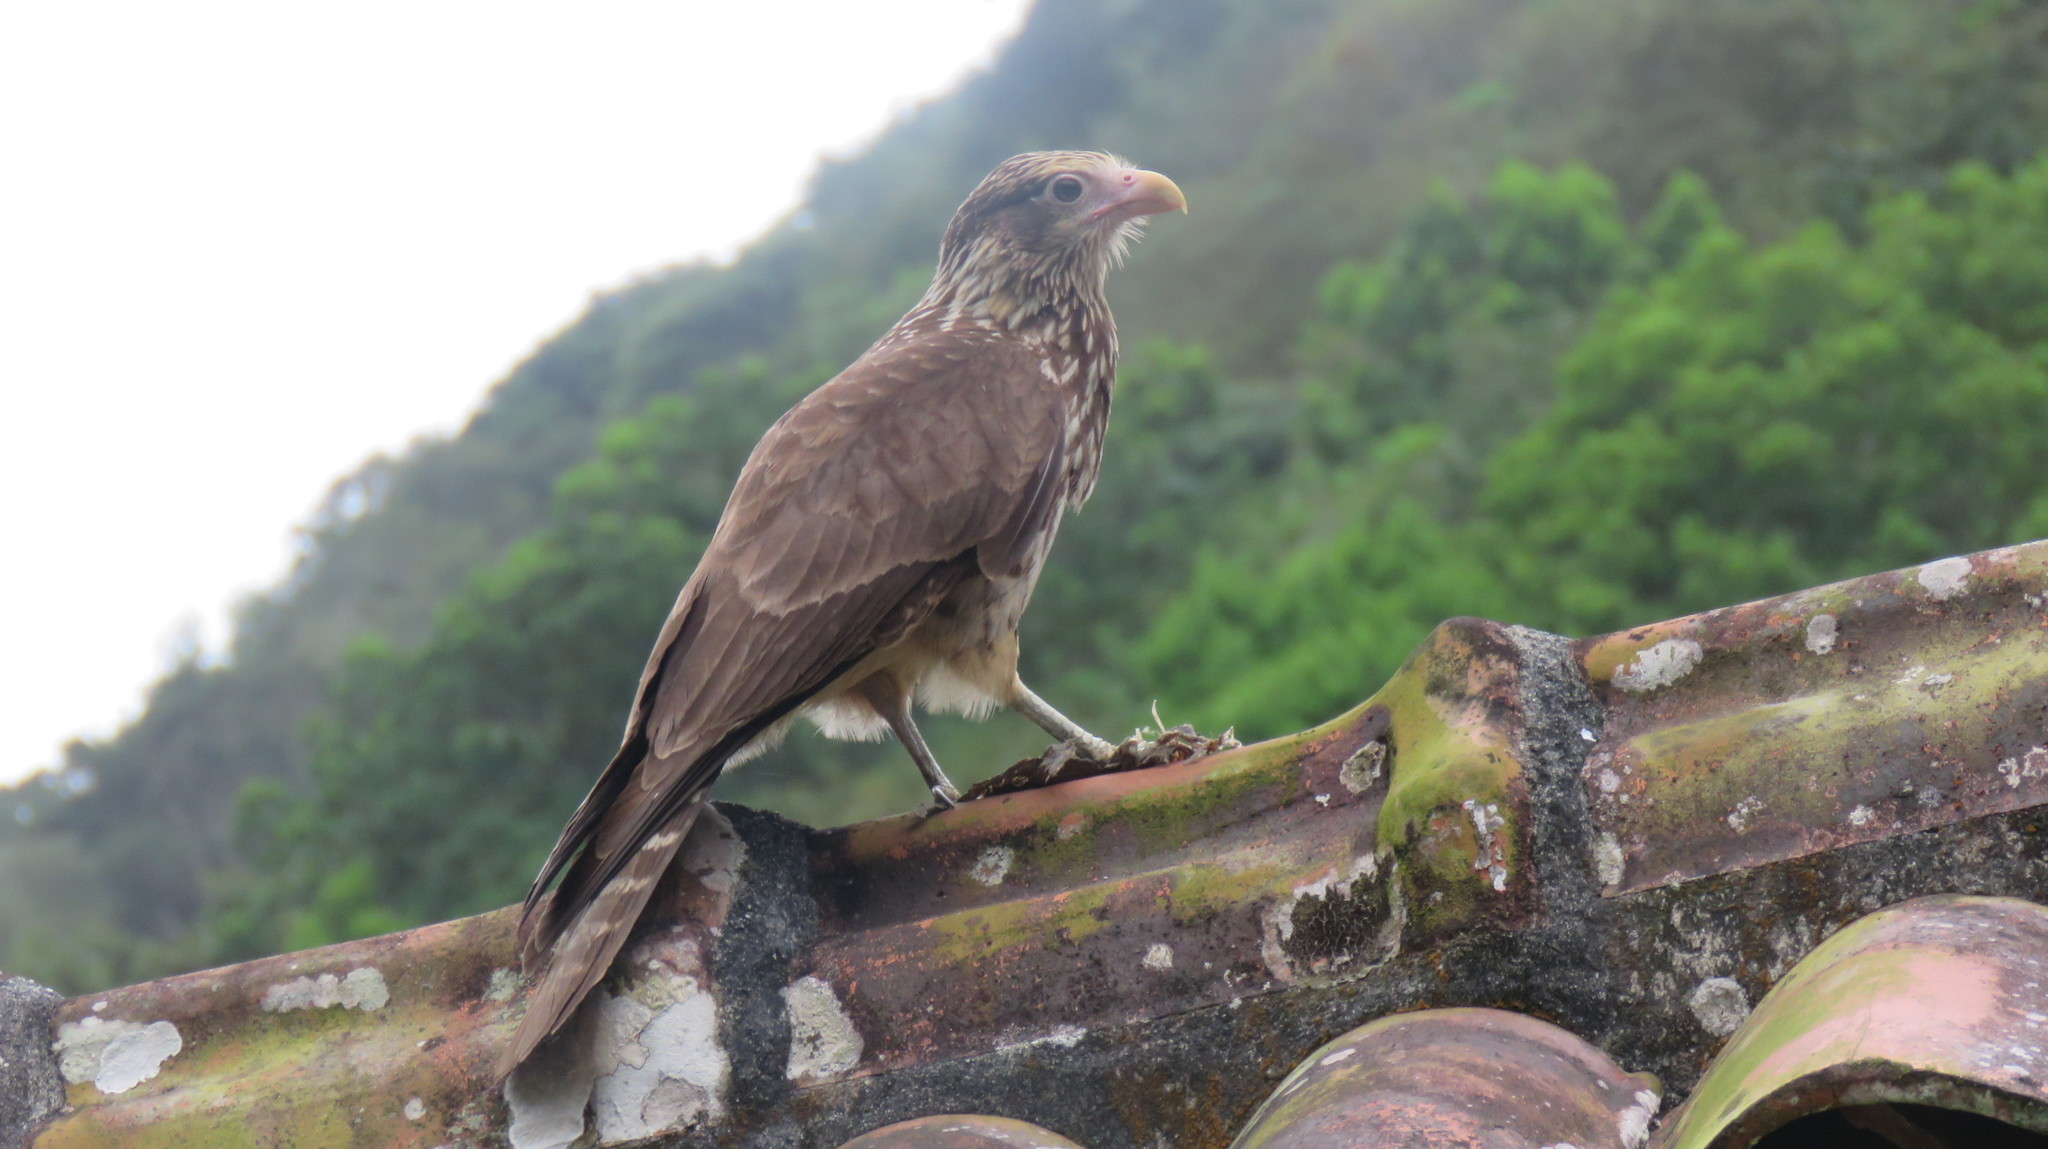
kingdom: Animalia
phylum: Chordata
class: Aves
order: Falconiformes
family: Falconidae
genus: Daptrius
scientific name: Daptrius
